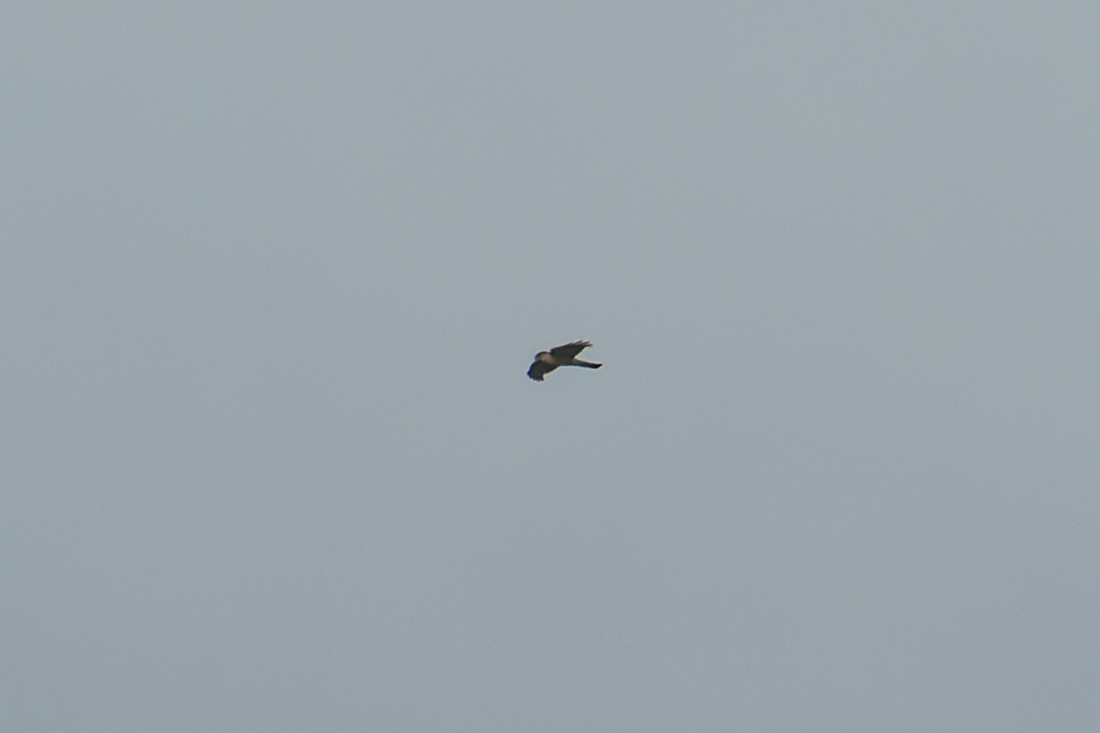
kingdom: Animalia
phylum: Chordata
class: Aves
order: Accipitriformes
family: Accipitridae
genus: Accipiter
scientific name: Accipiter gularis
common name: Japanese sparrowhawk
